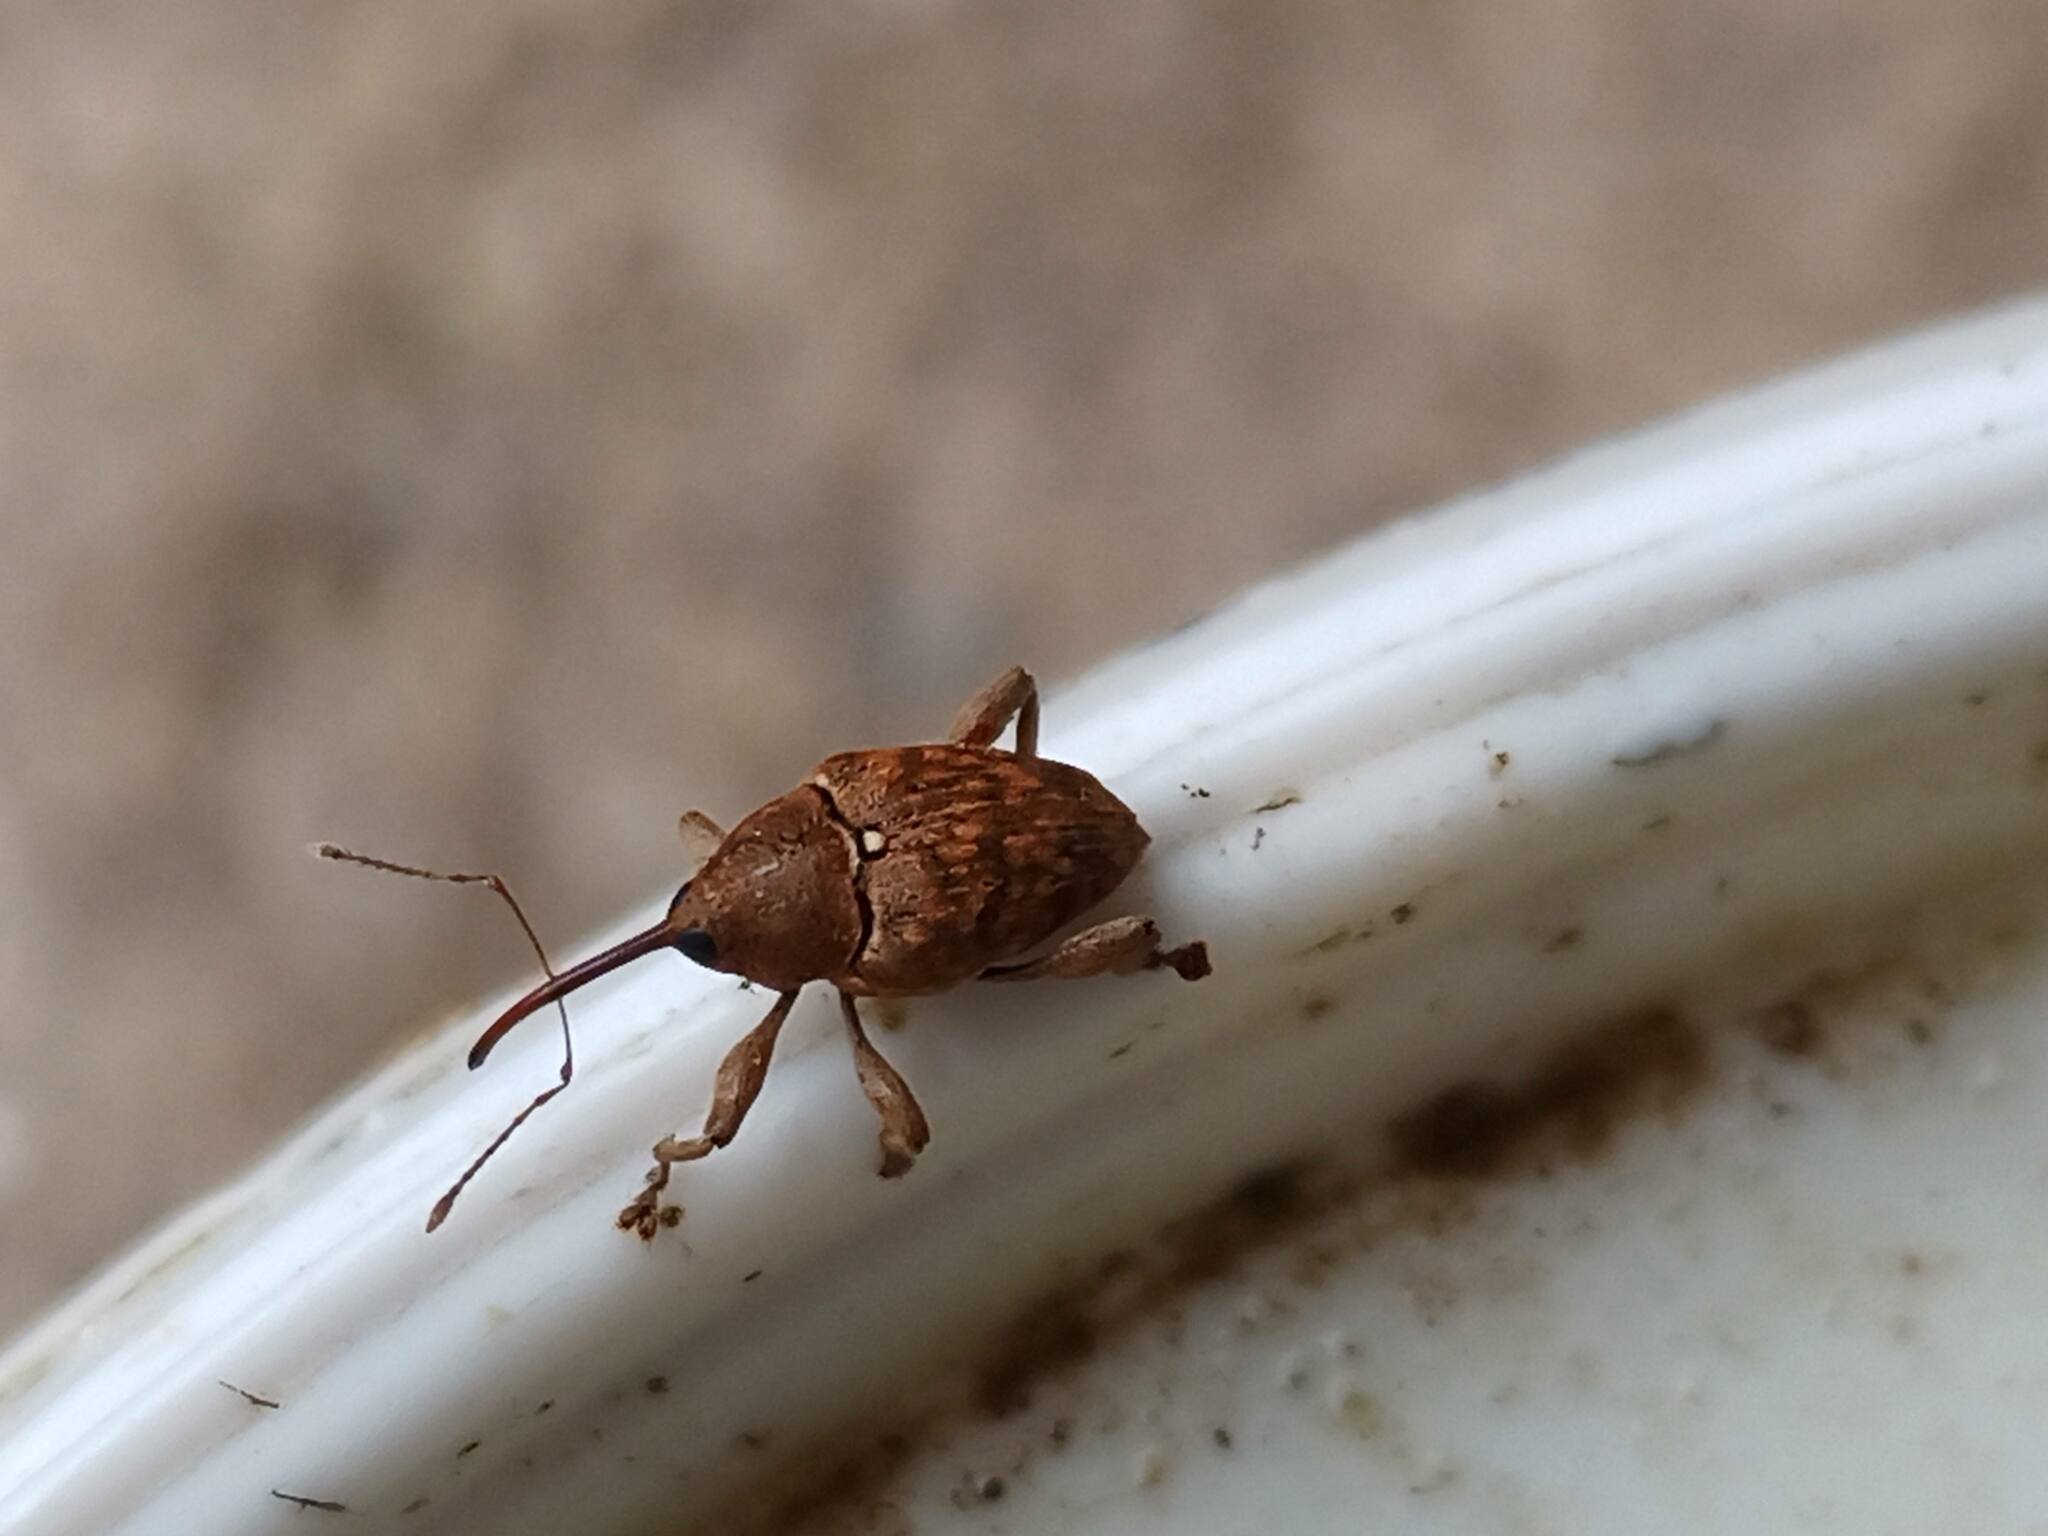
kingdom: Animalia
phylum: Arthropoda
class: Insecta
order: Coleoptera
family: Curculionidae
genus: Curculio
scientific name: Curculio glandium
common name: Acorn weevil
